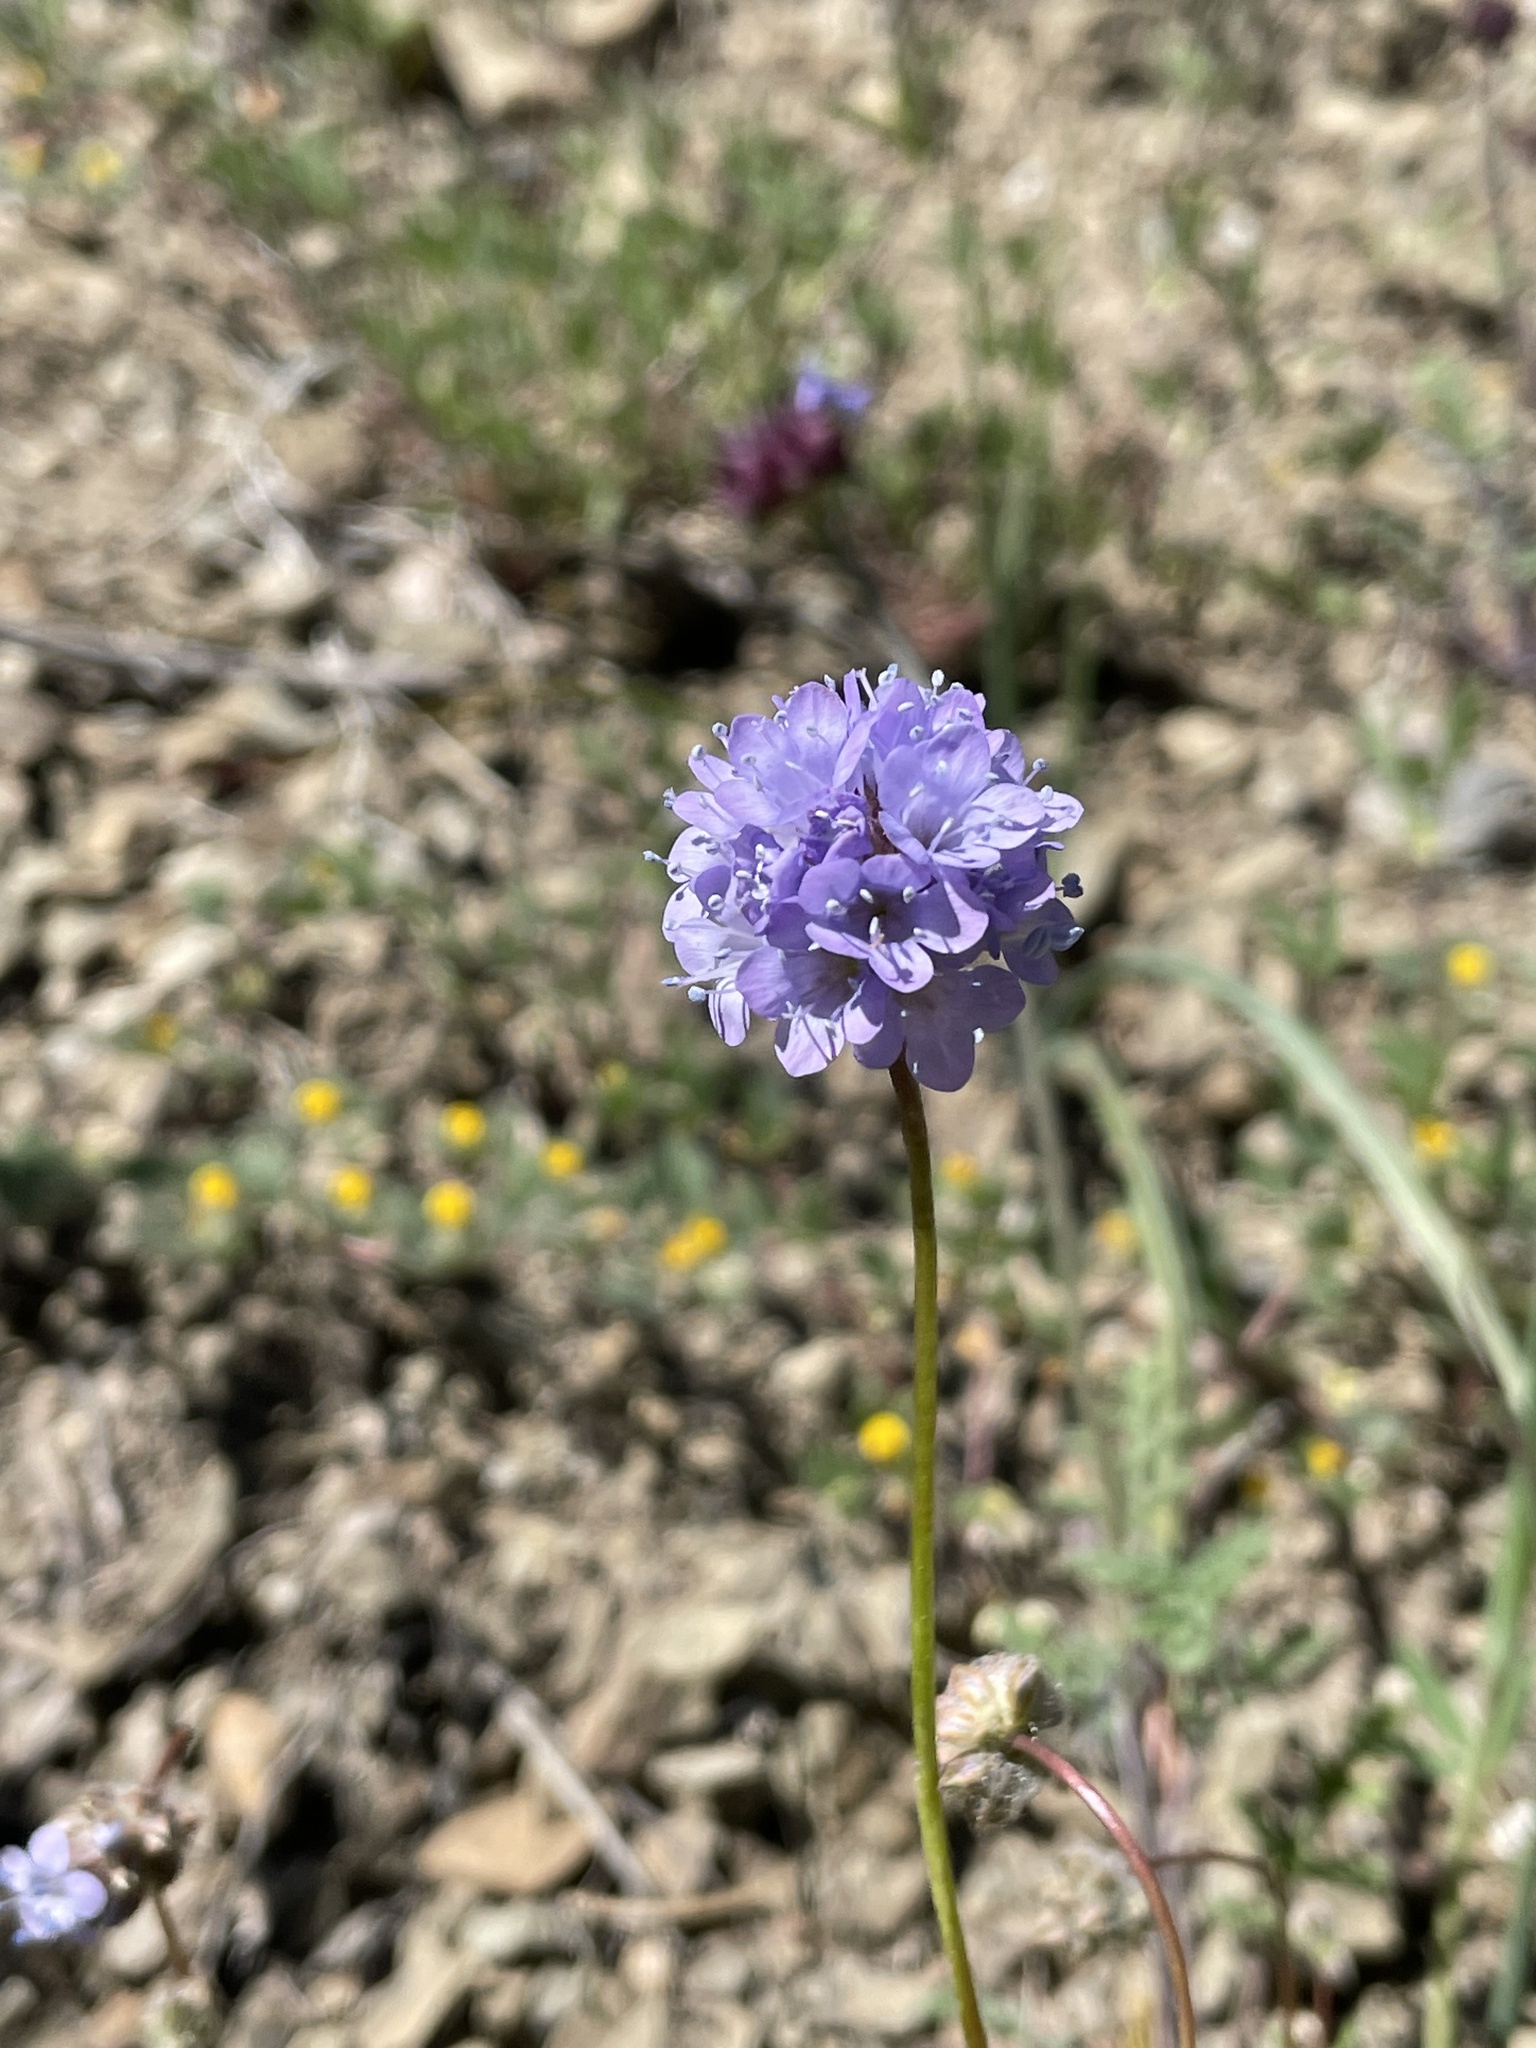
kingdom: Plantae
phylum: Tracheophyta
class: Magnoliopsida
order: Ericales
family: Polemoniaceae
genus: Gilia
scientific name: Gilia achilleifolia
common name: California gily-flower
